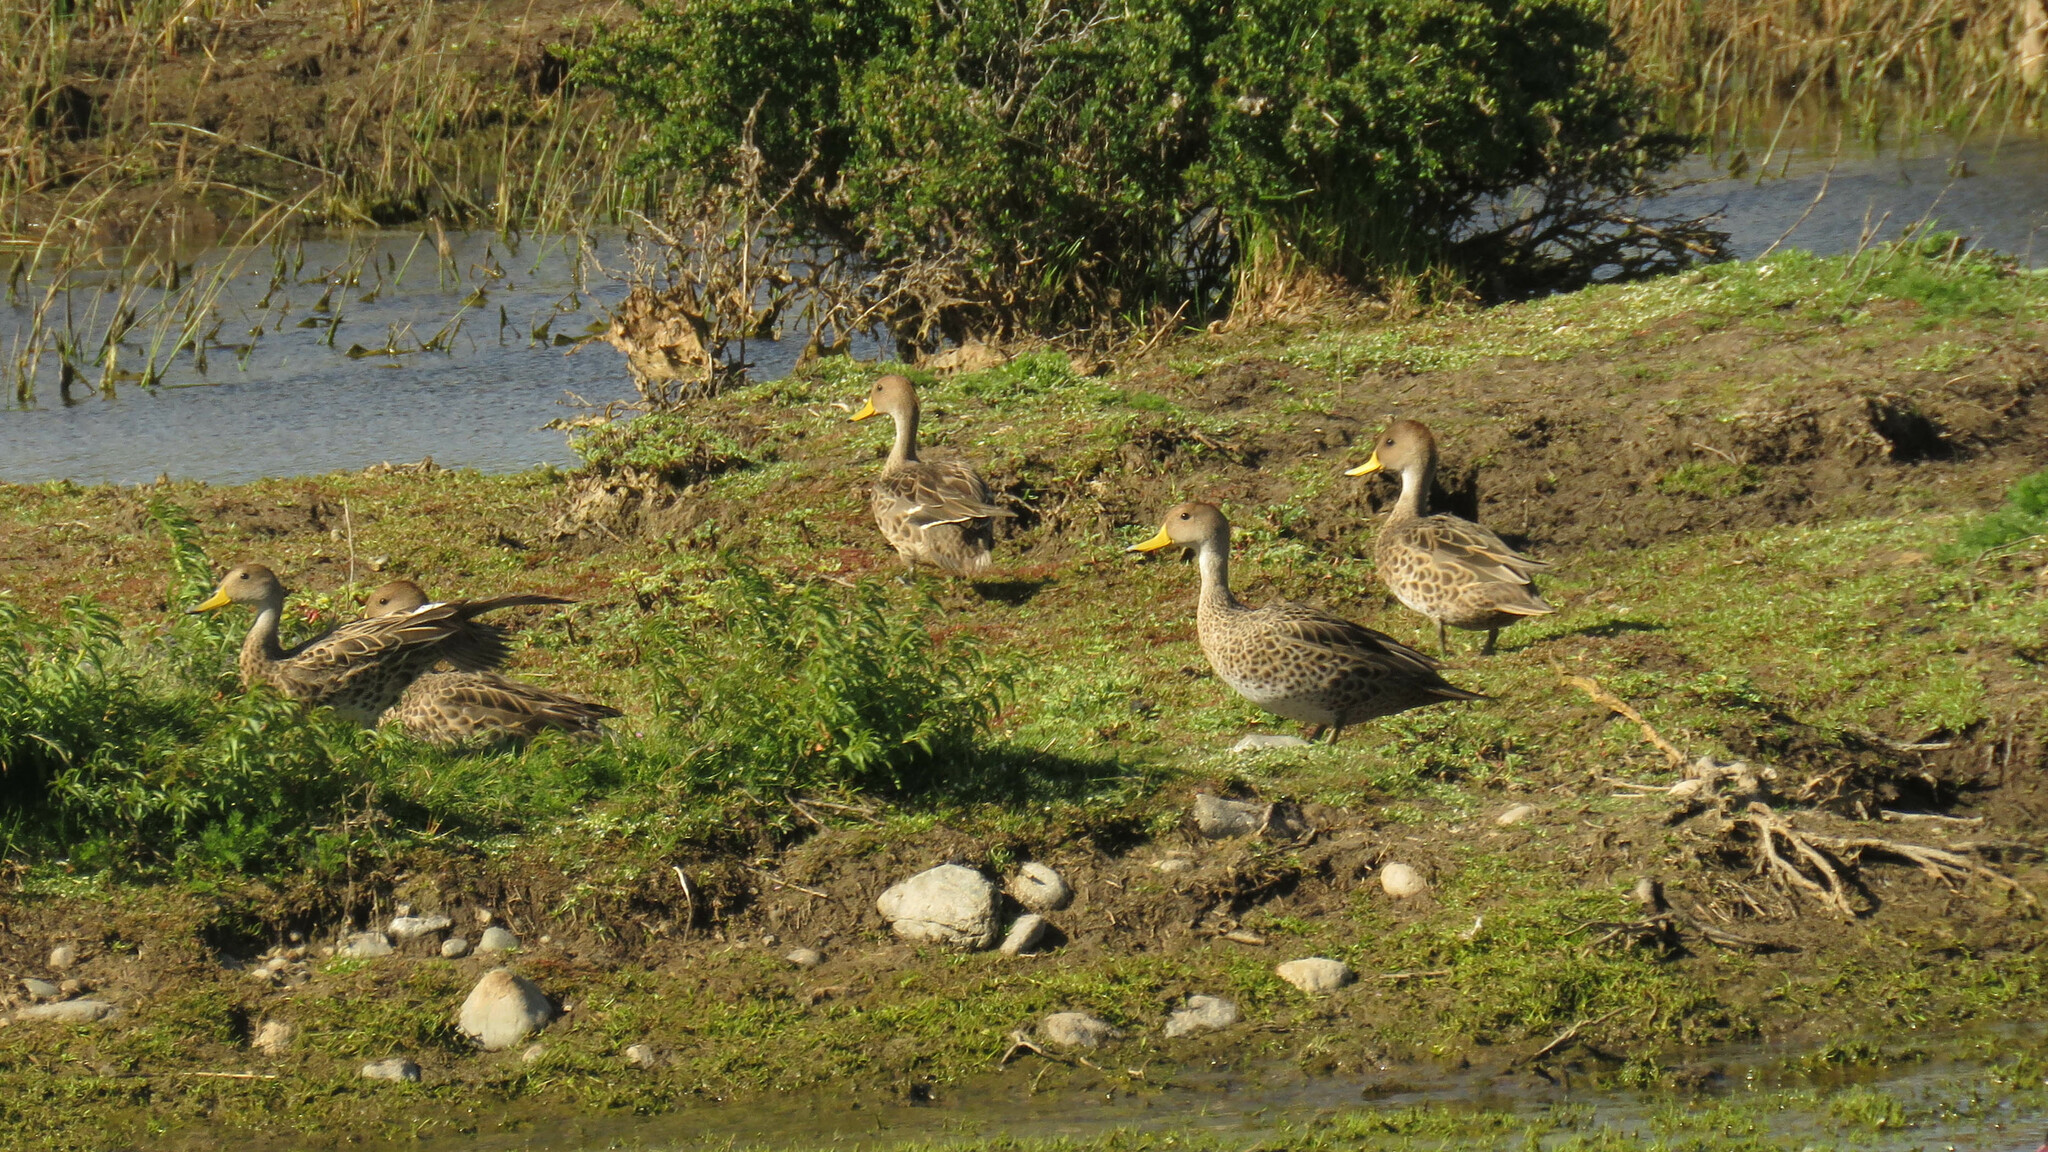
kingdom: Animalia
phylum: Chordata
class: Aves
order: Anseriformes
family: Anatidae
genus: Anas
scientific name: Anas georgica
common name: Yellow-billed pintail
